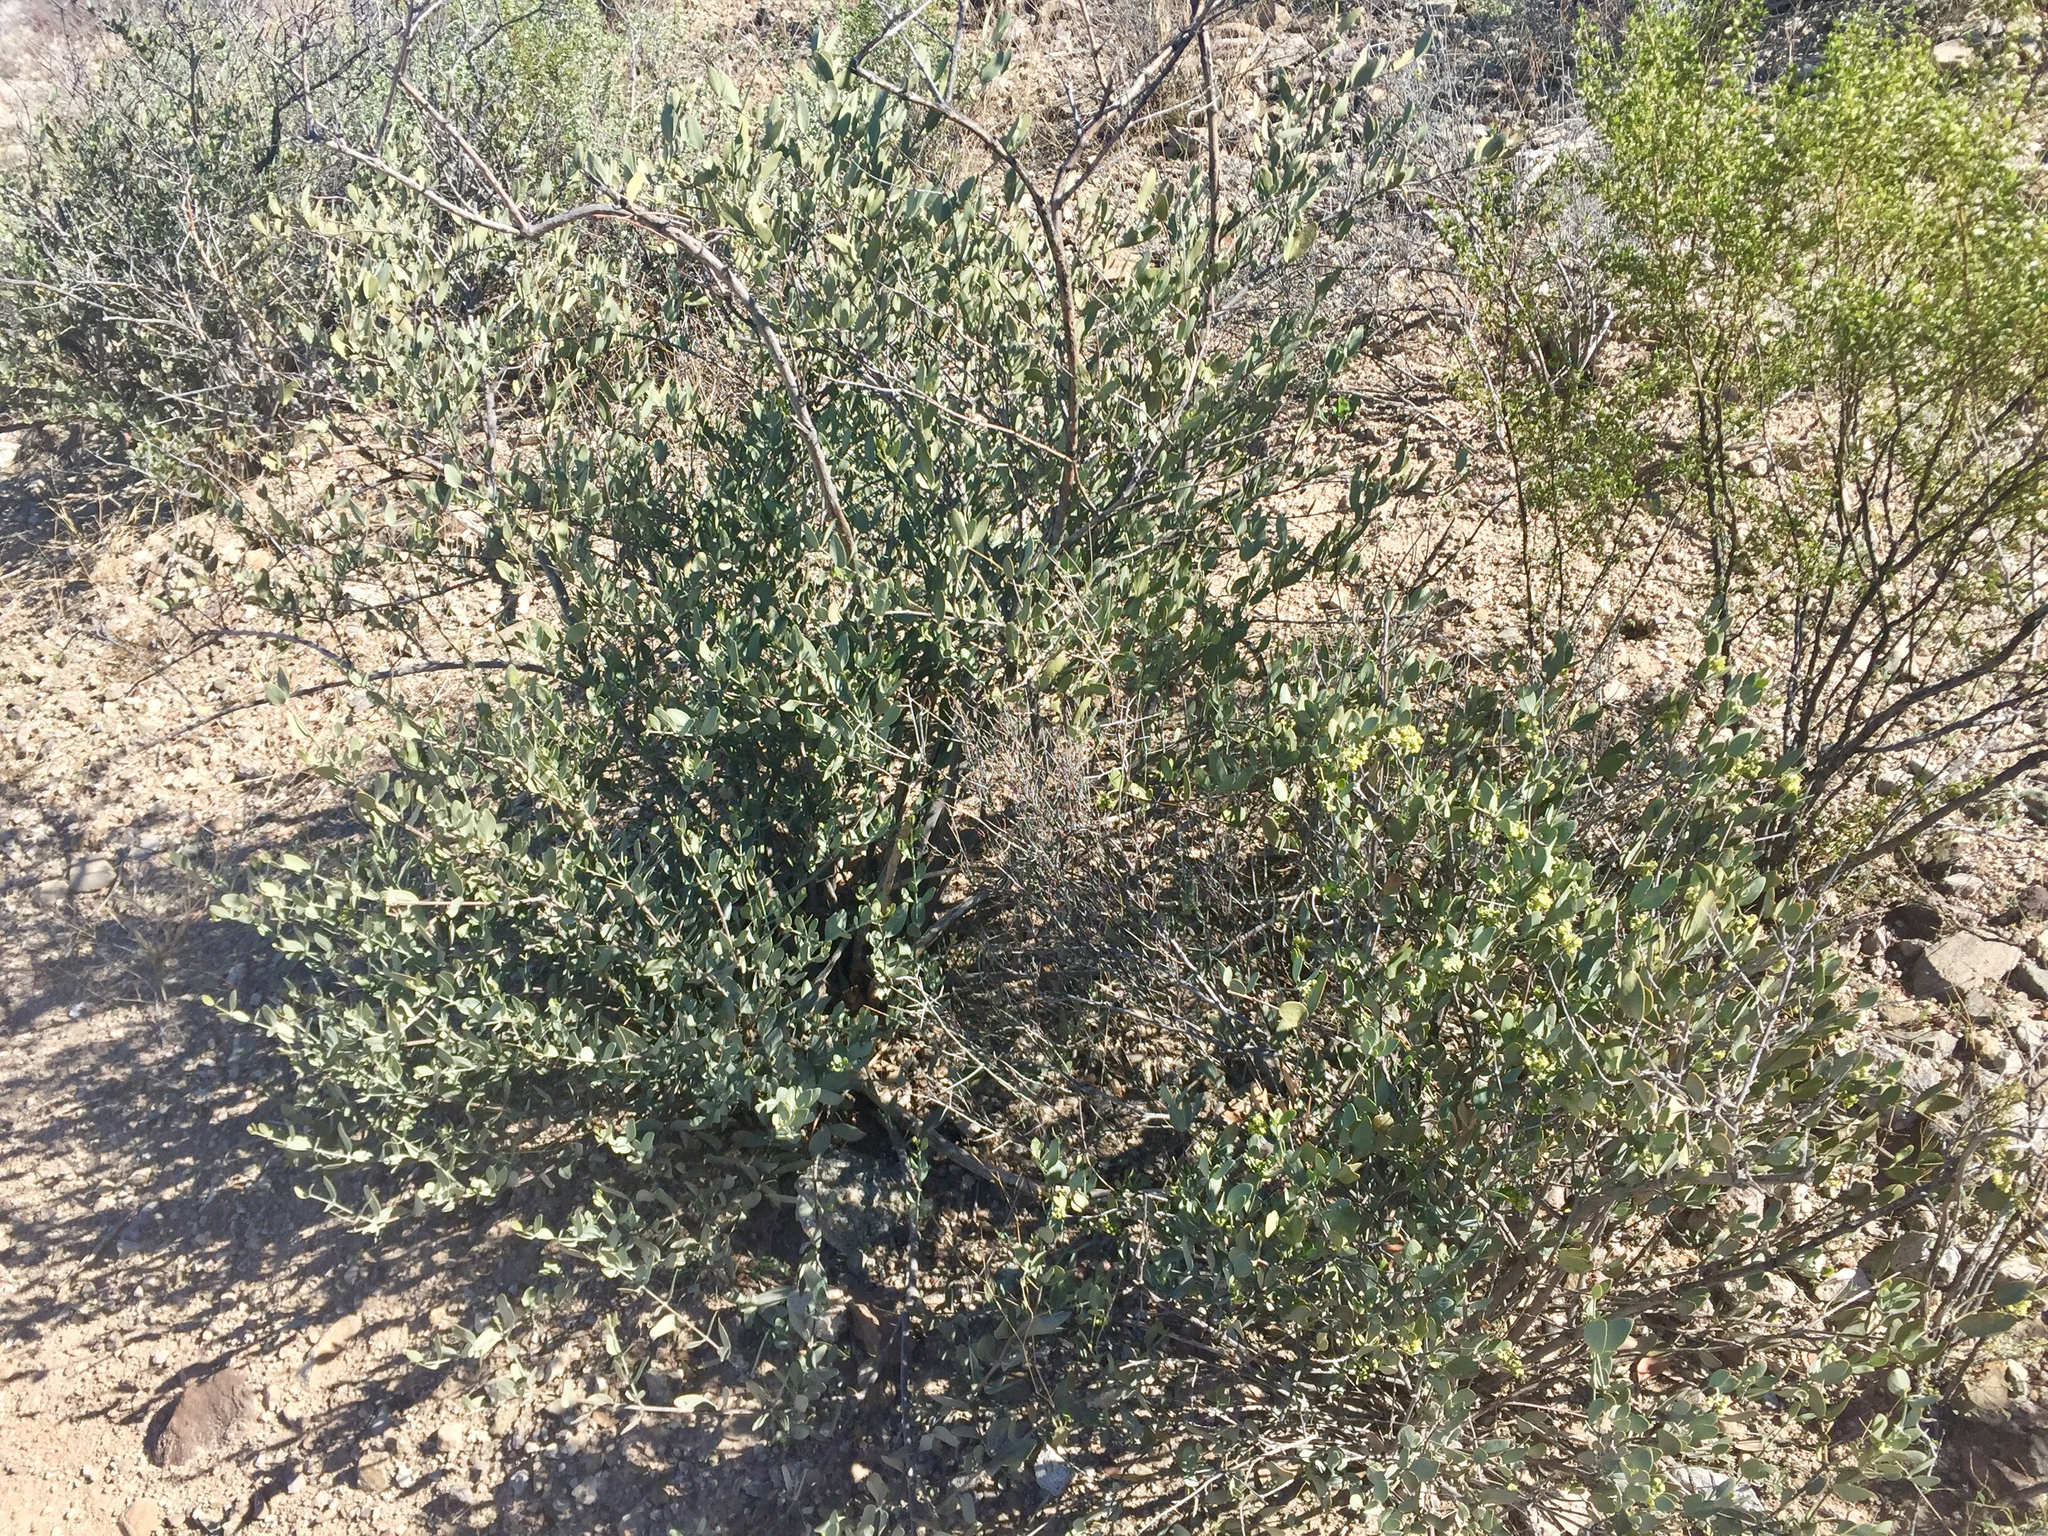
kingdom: Plantae
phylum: Tracheophyta
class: Magnoliopsida
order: Caryophyllales
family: Simmondsiaceae
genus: Simmondsia
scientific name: Simmondsia chinensis
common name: Jojoba
